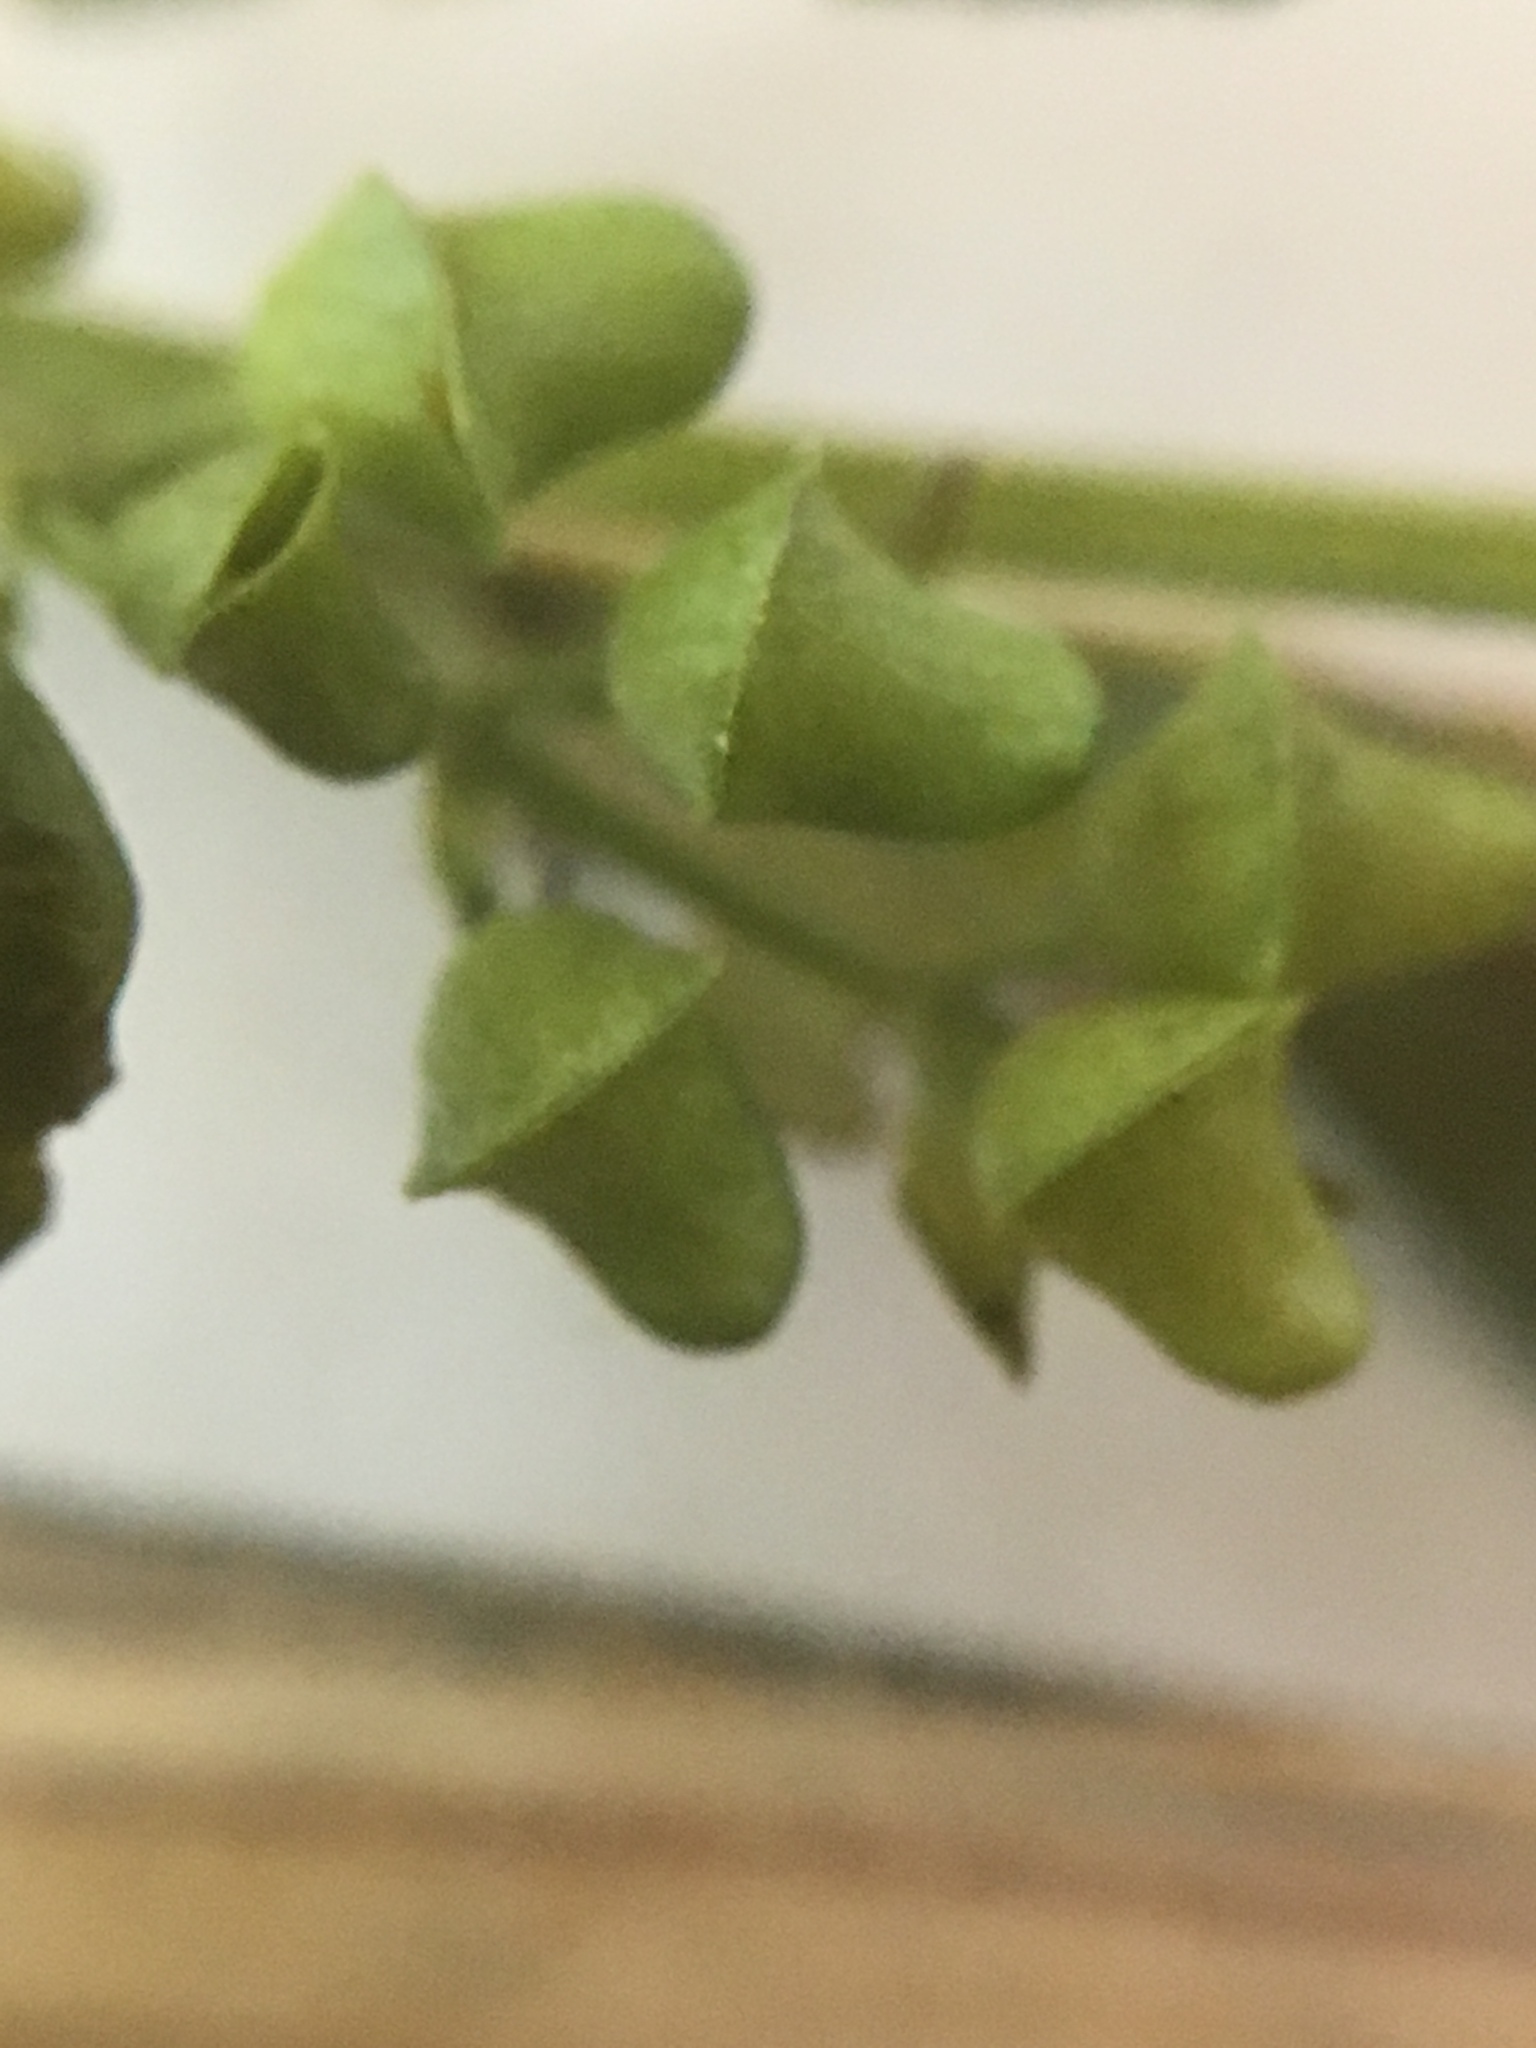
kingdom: Plantae
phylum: Tracheophyta
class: Magnoliopsida
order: Lamiales
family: Lamiaceae
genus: Scutellaria
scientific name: Scutellaria lateriflora
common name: Blue skullcap
